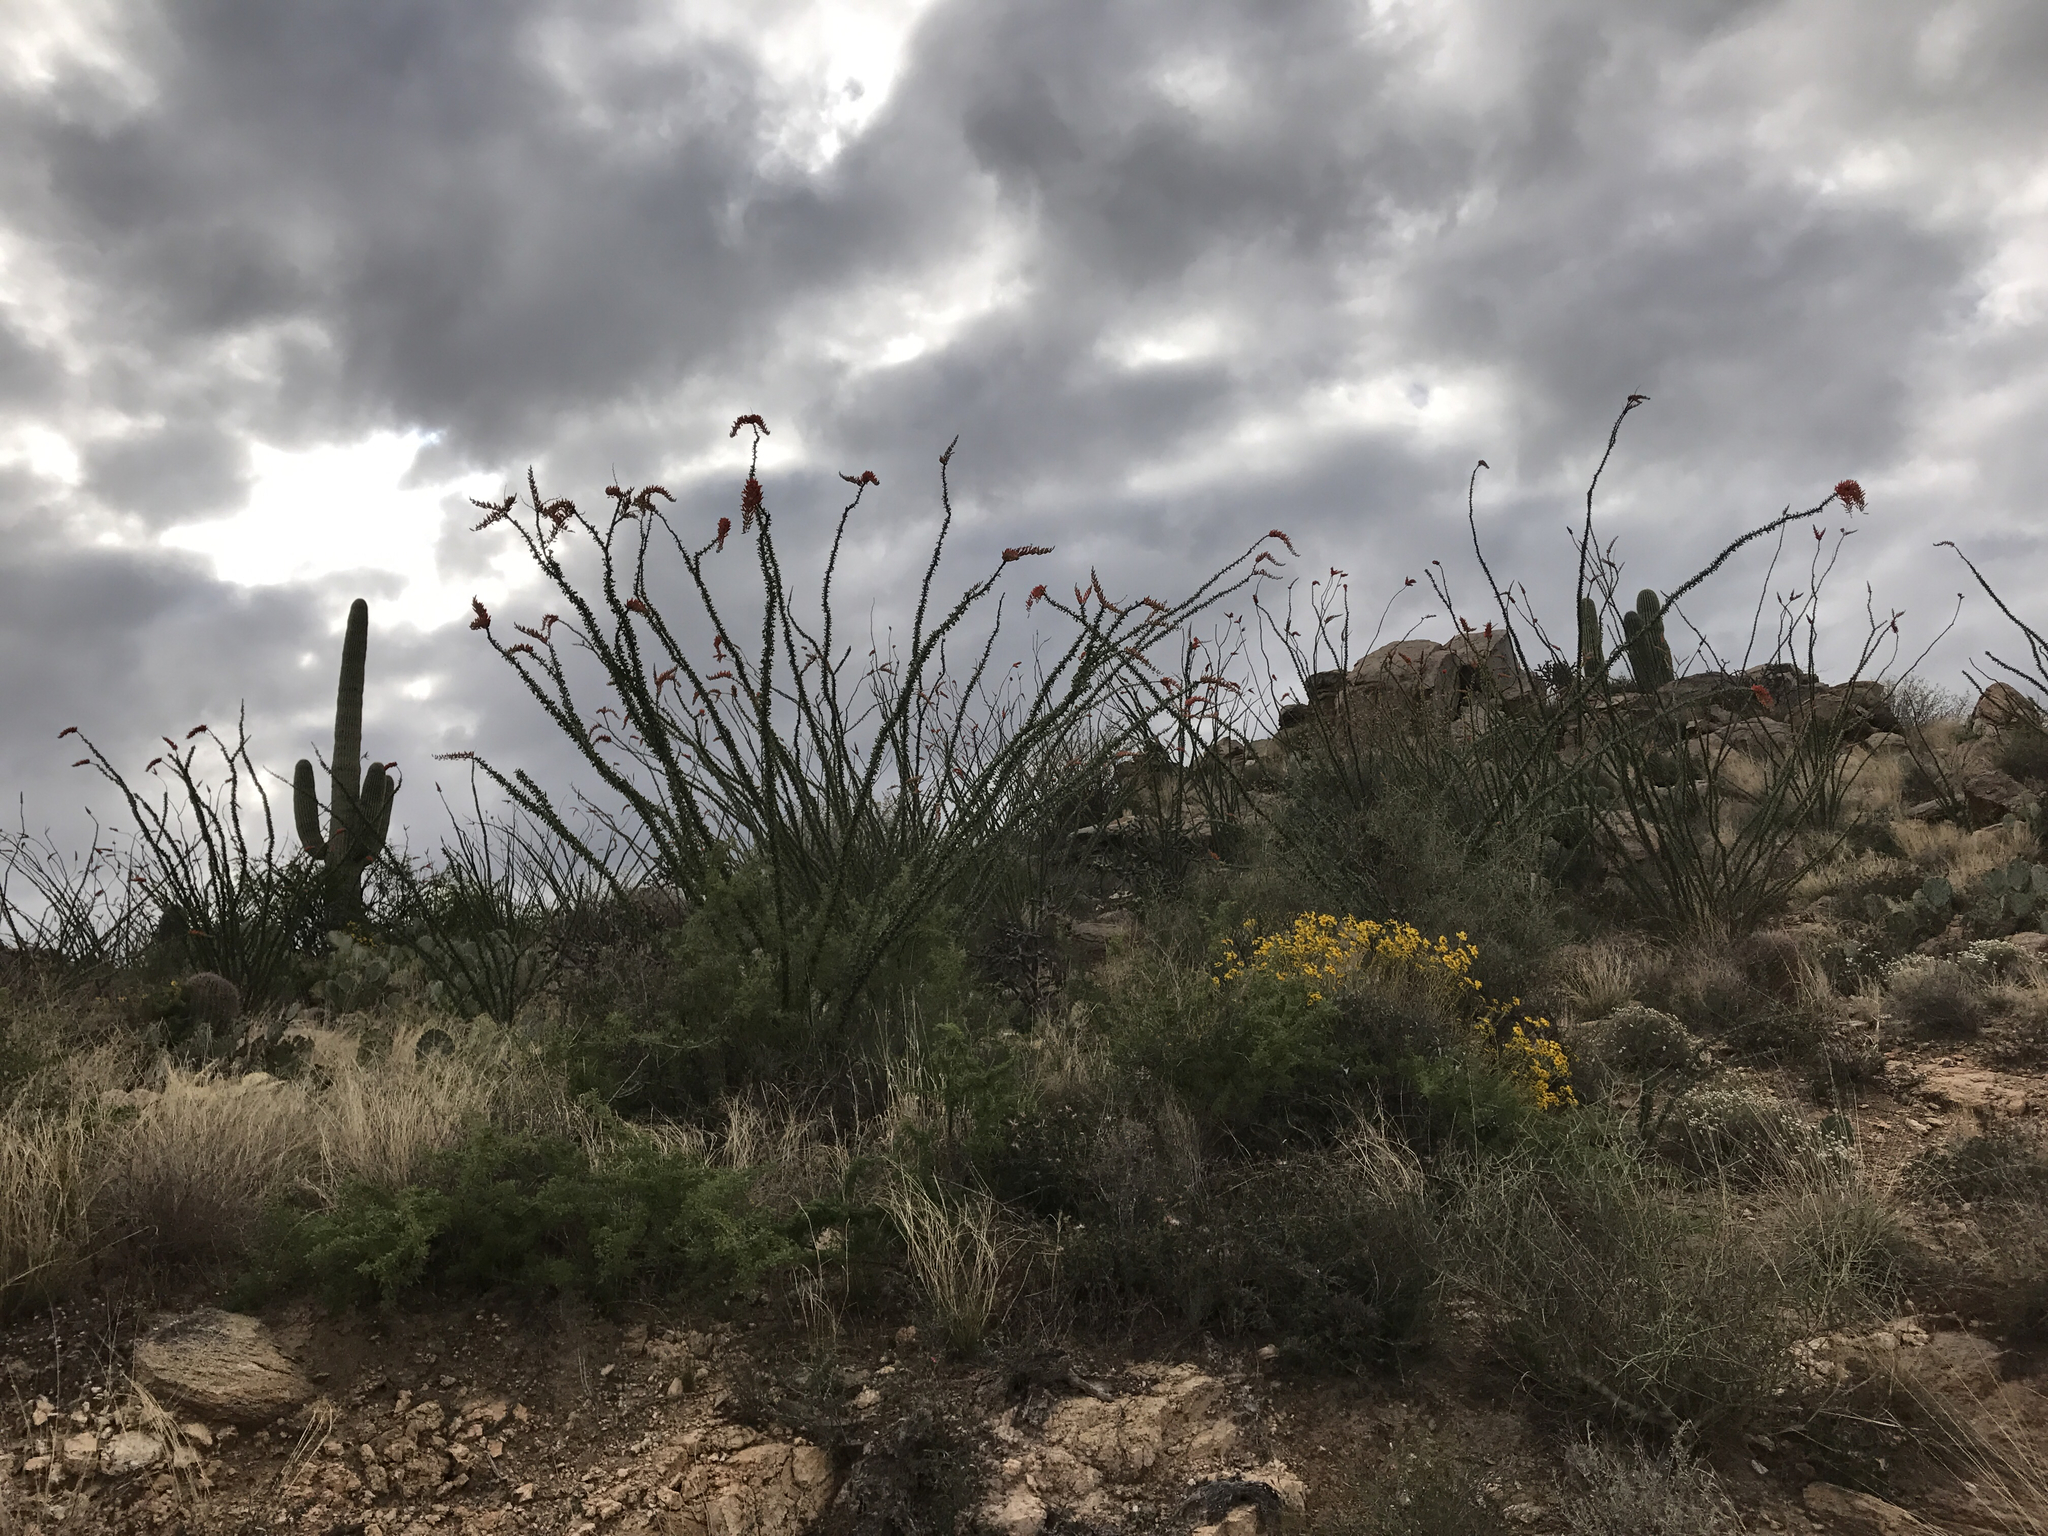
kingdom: Plantae
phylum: Tracheophyta
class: Magnoliopsida
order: Ericales
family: Fouquieriaceae
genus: Fouquieria
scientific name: Fouquieria splendens
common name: Vine-cactus
